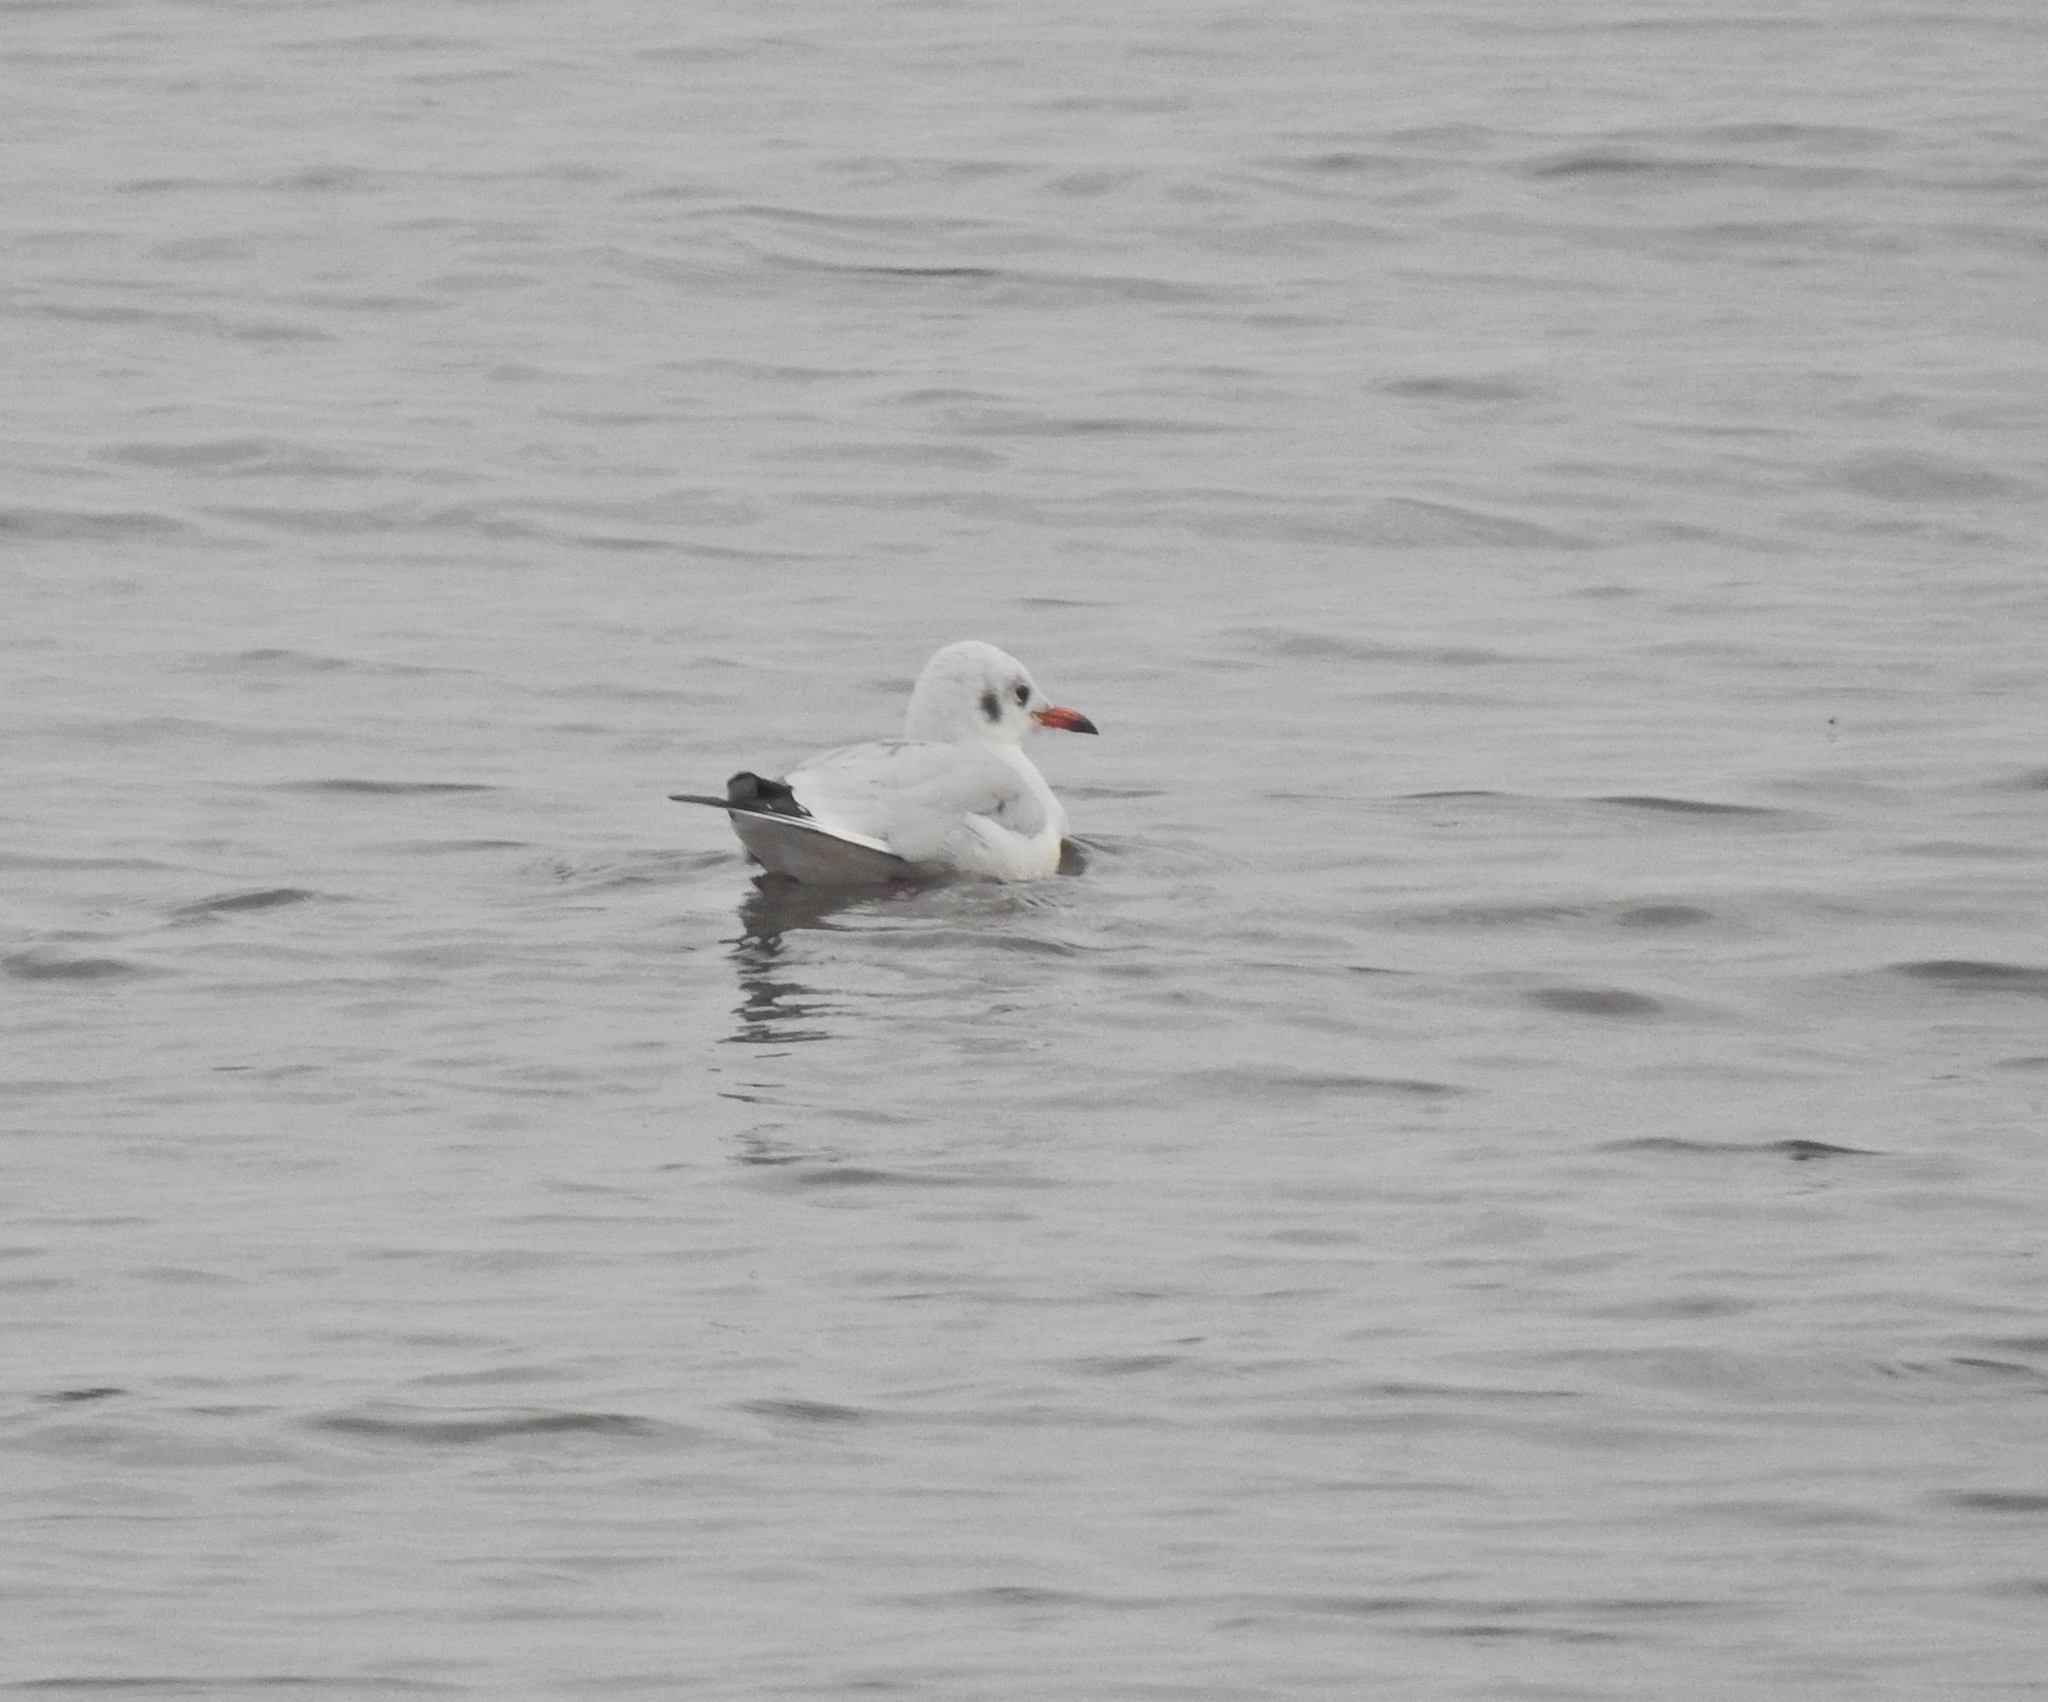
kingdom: Animalia
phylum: Chordata
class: Aves
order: Charadriiformes
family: Laridae
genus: Chroicocephalus
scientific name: Chroicocephalus ridibundus
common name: Black-headed gull
